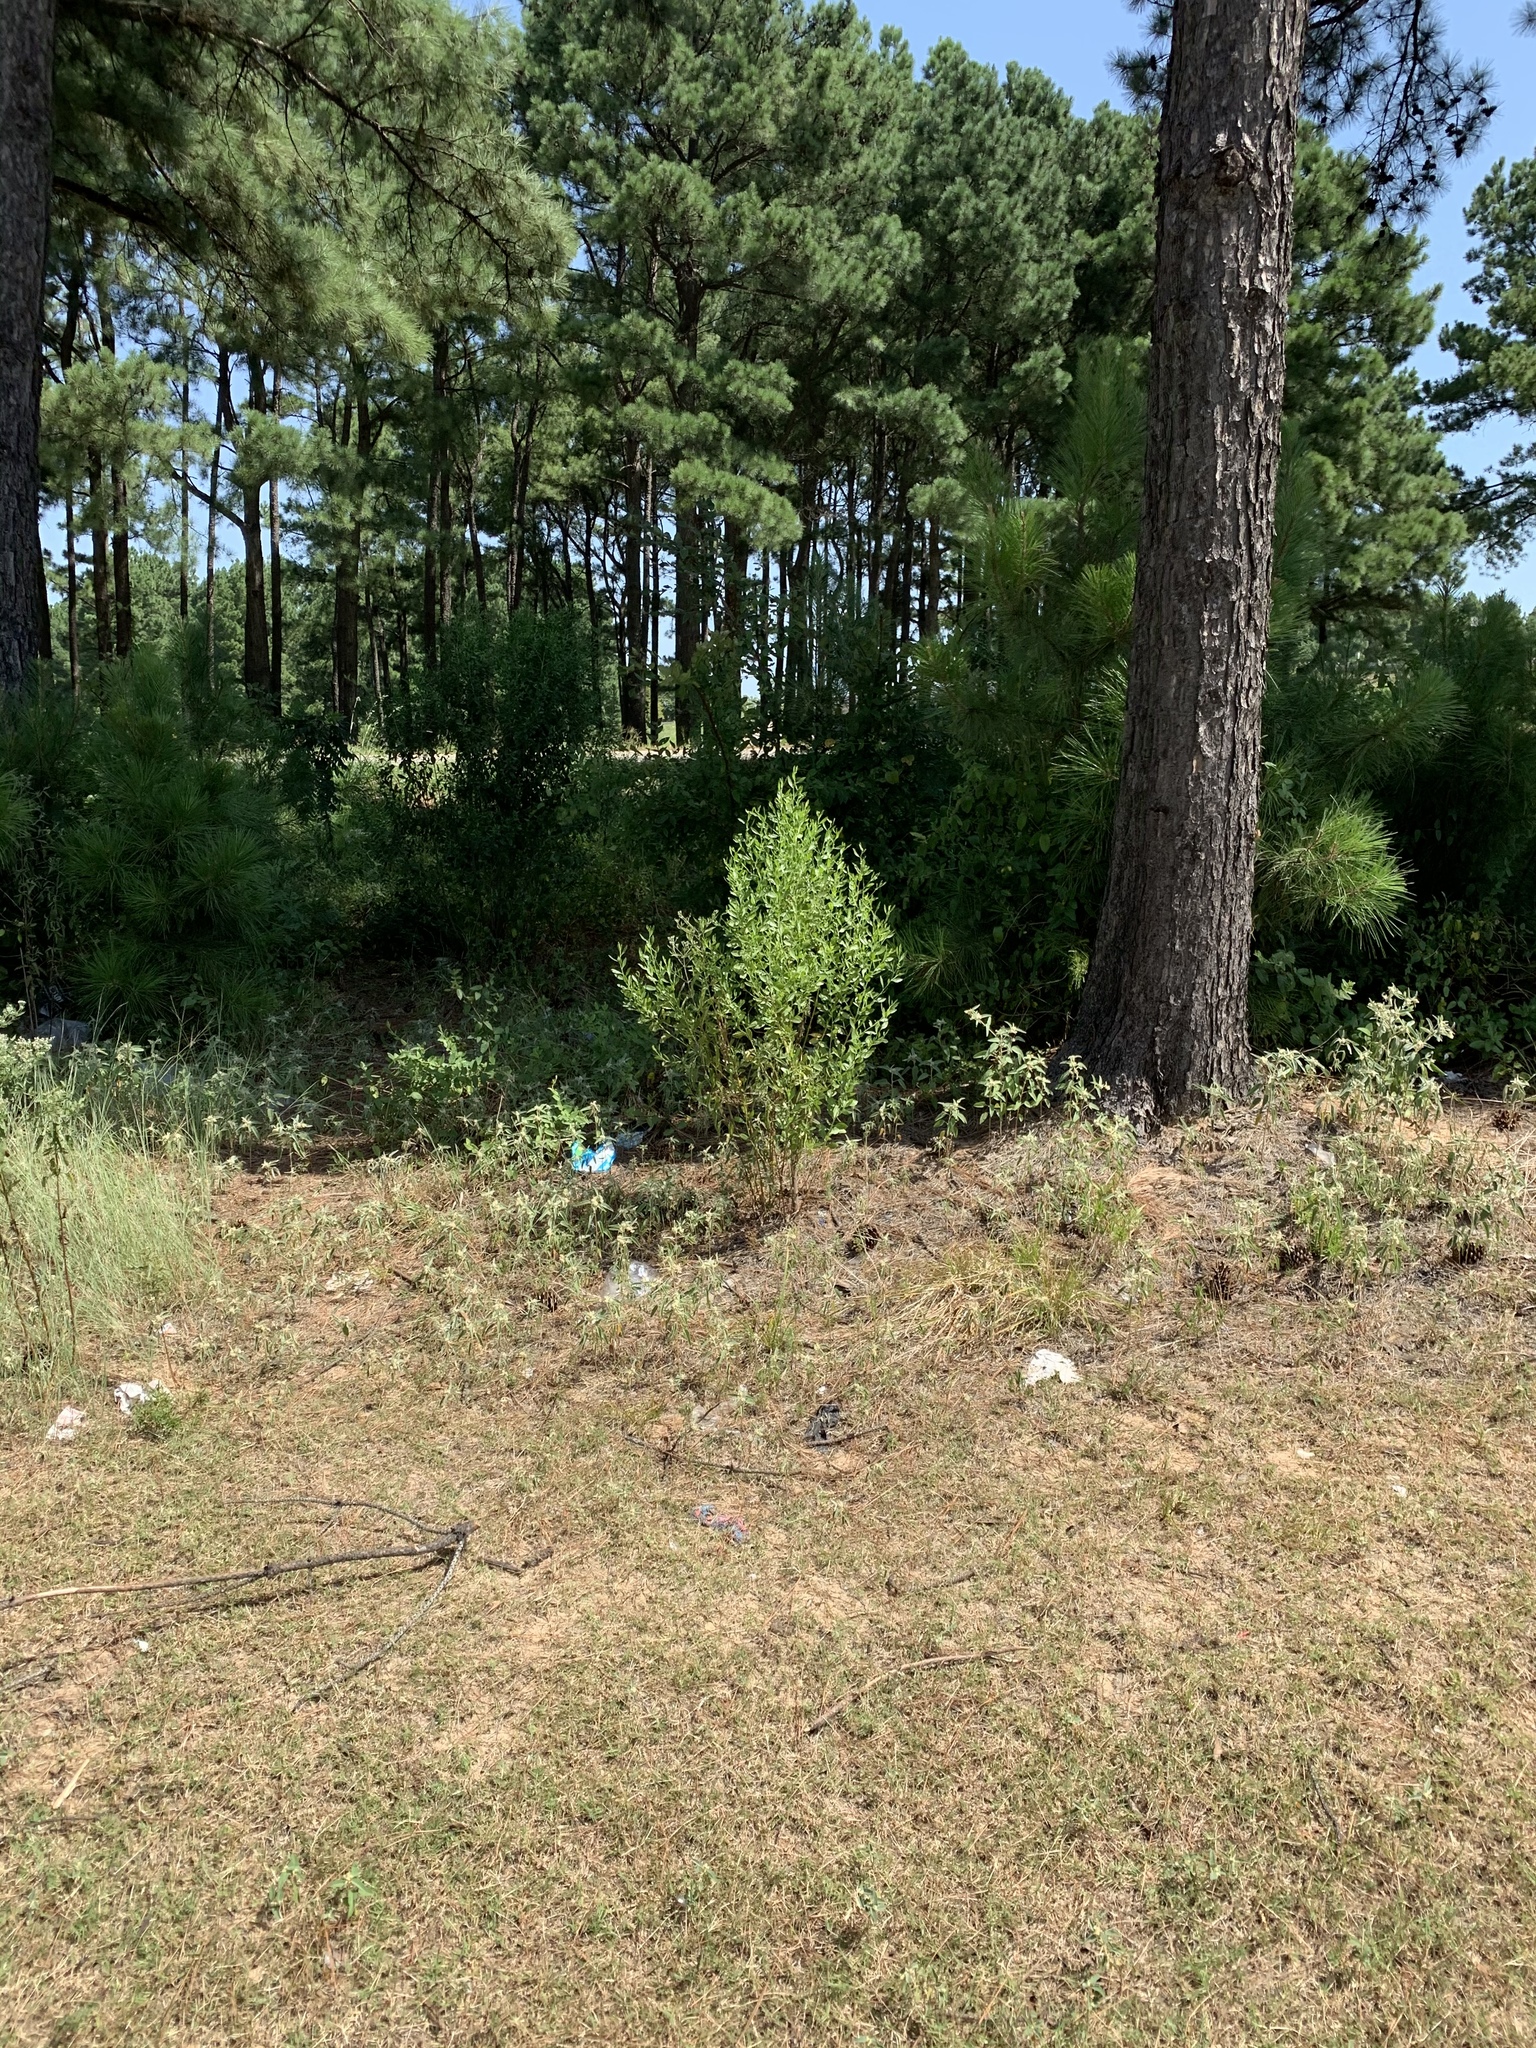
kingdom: Plantae
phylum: Tracheophyta
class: Magnoliopsida
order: Asterales
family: Asteraceae
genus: Baccharis
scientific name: Baccharis halimifolia
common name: Eastern baccharis
